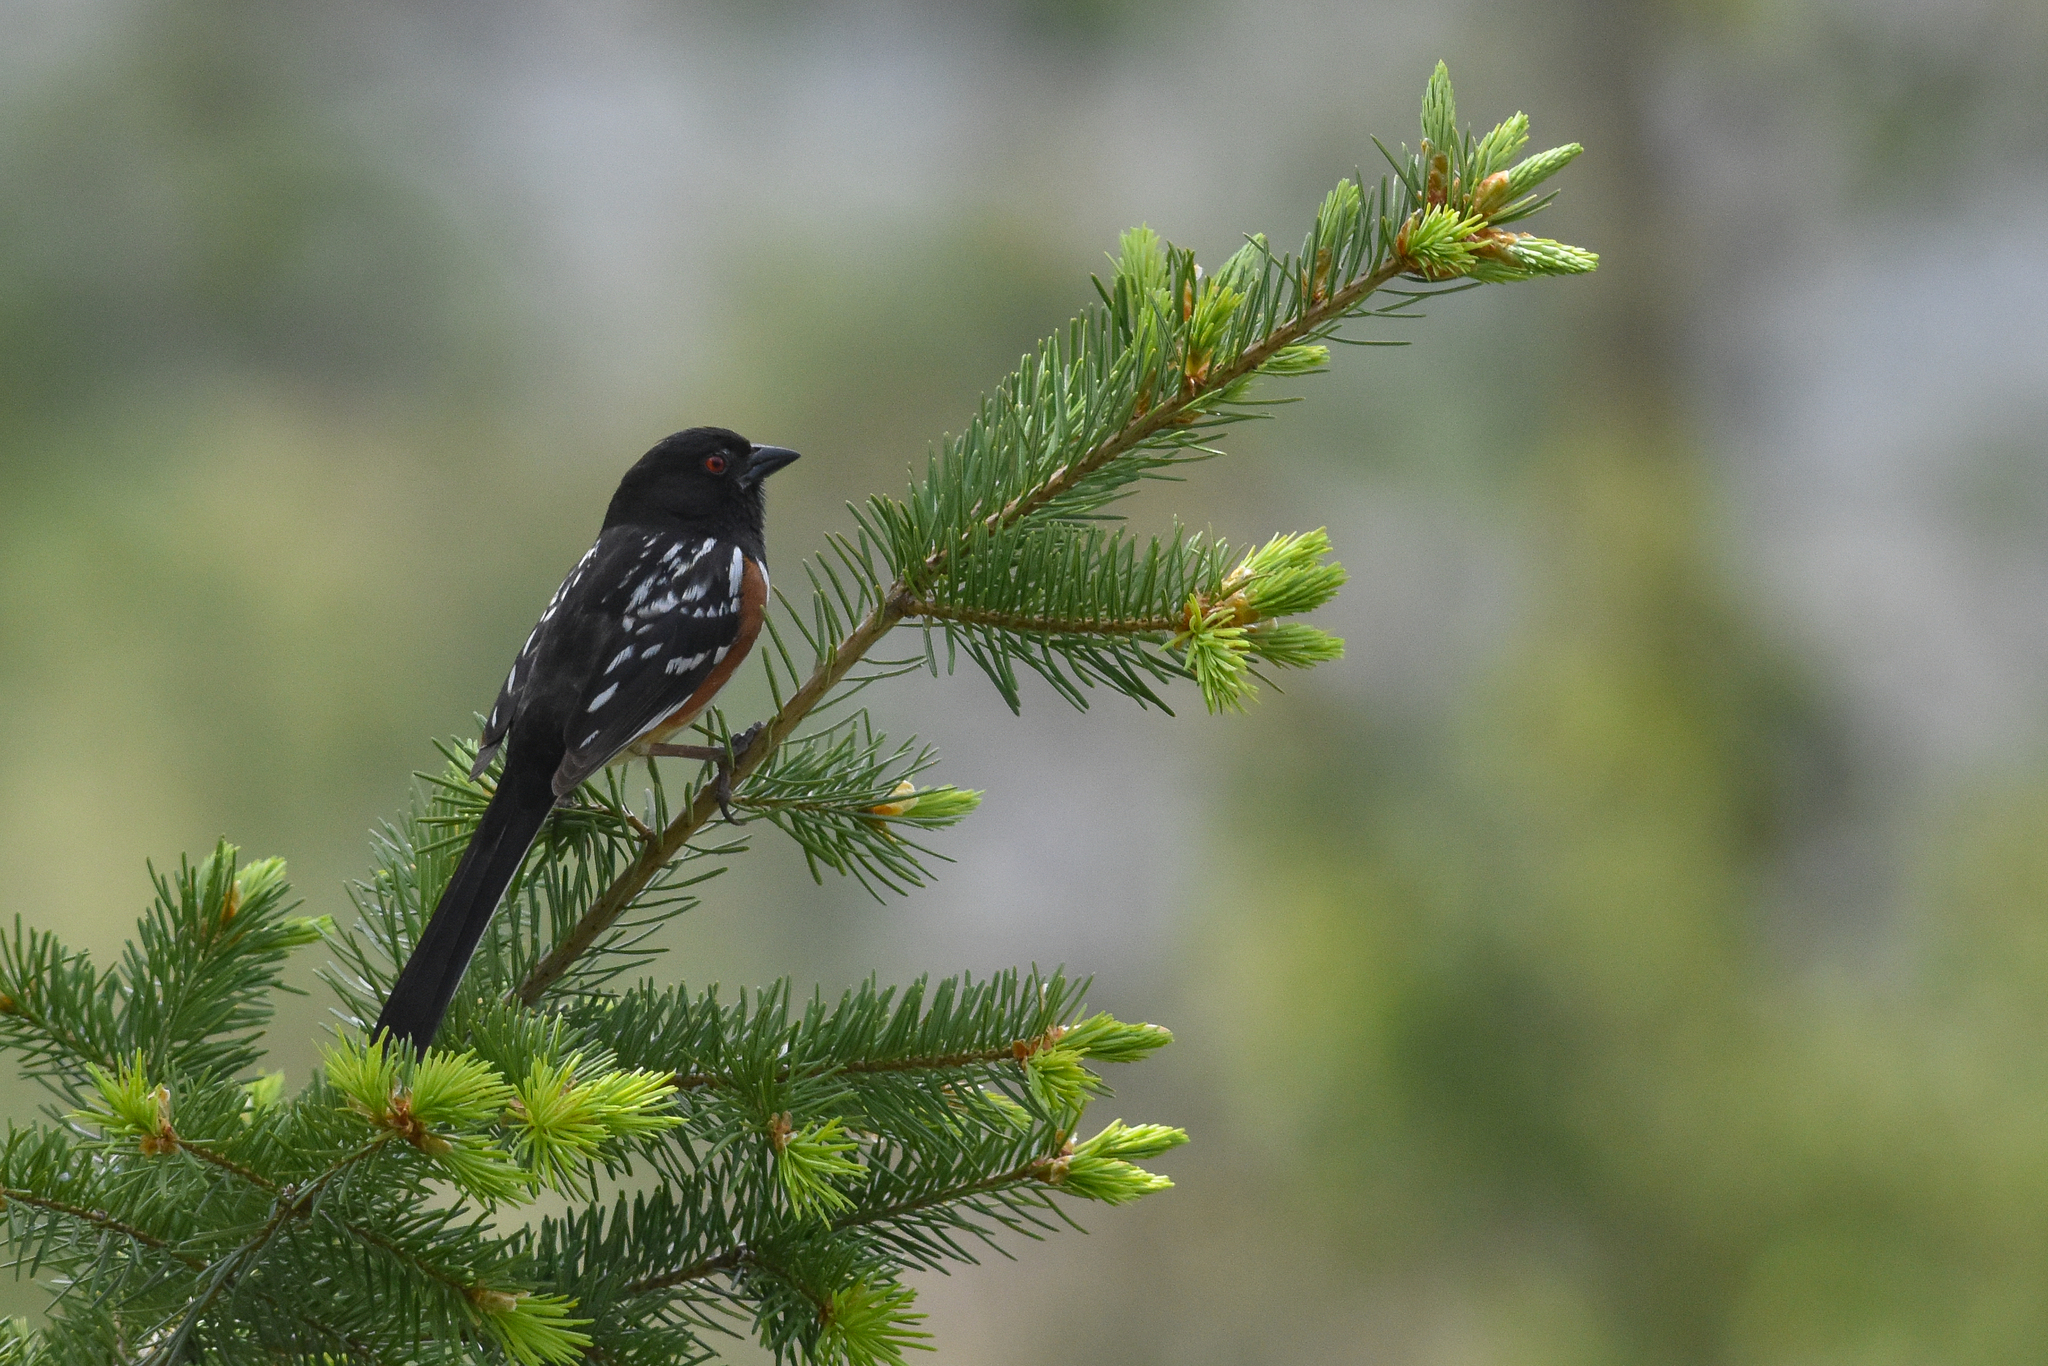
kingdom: Animalia
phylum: Chordata
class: Aves
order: Passeriformes
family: Passerellidae
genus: Pipilo
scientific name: Pipilo maculatus
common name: Spotted towhee
